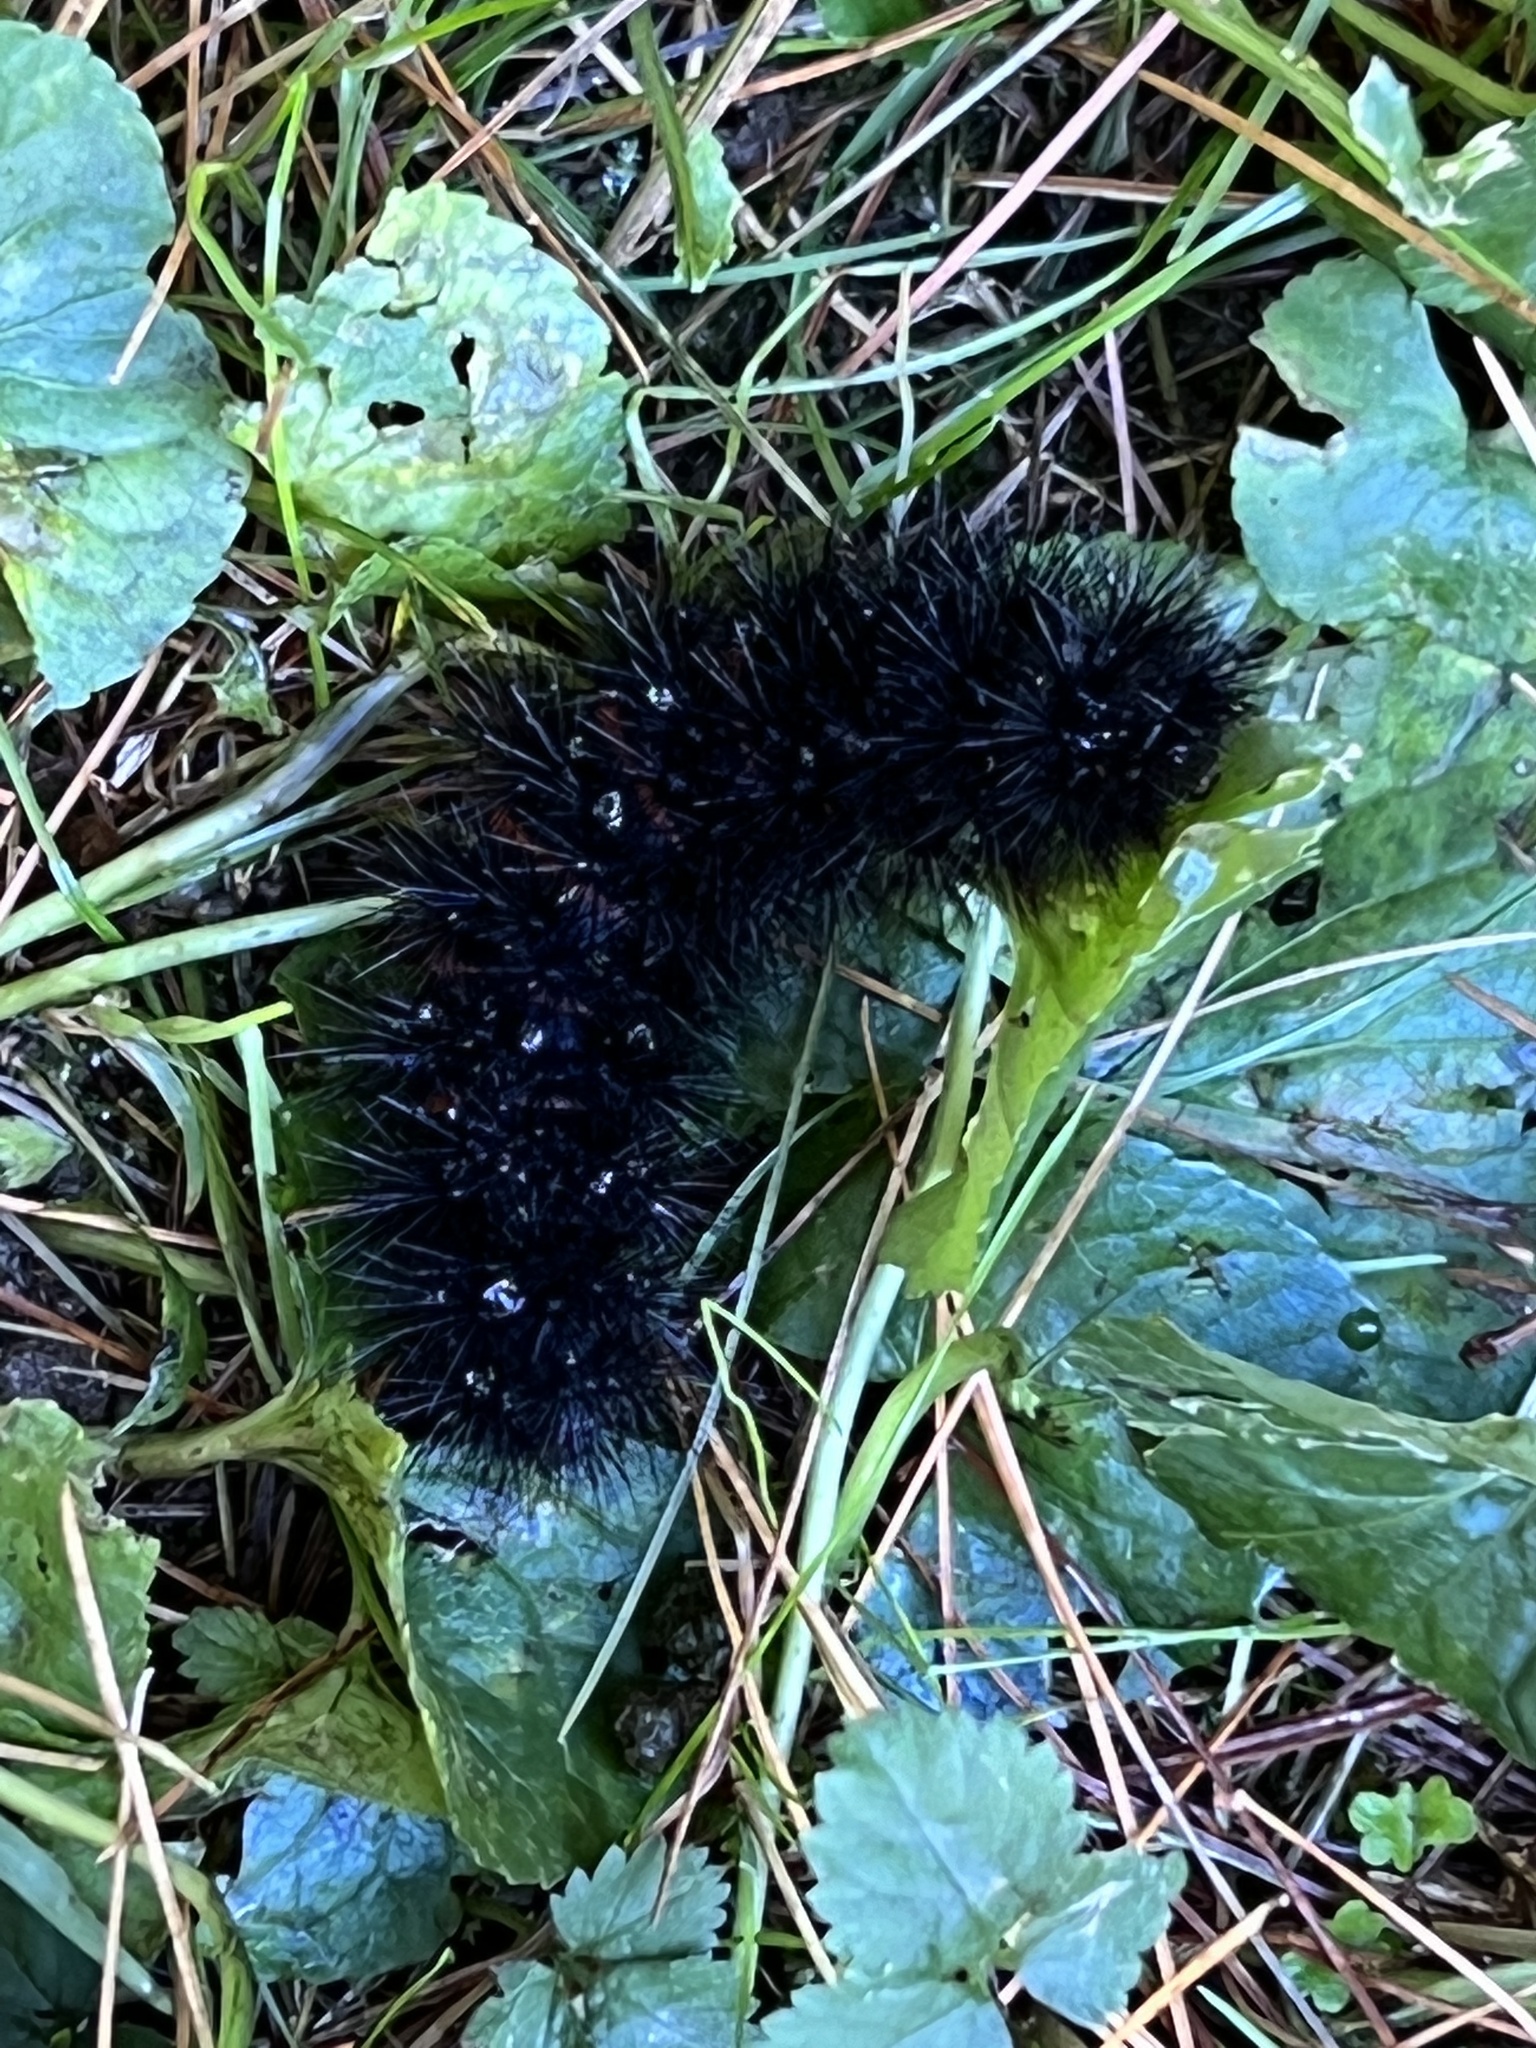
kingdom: Animalia
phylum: Arthropoda
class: Insecta
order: Lepidoptera
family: Erebidae
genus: Hypercompe
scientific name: Hypercompe scribonia
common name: Giant leopard moth
